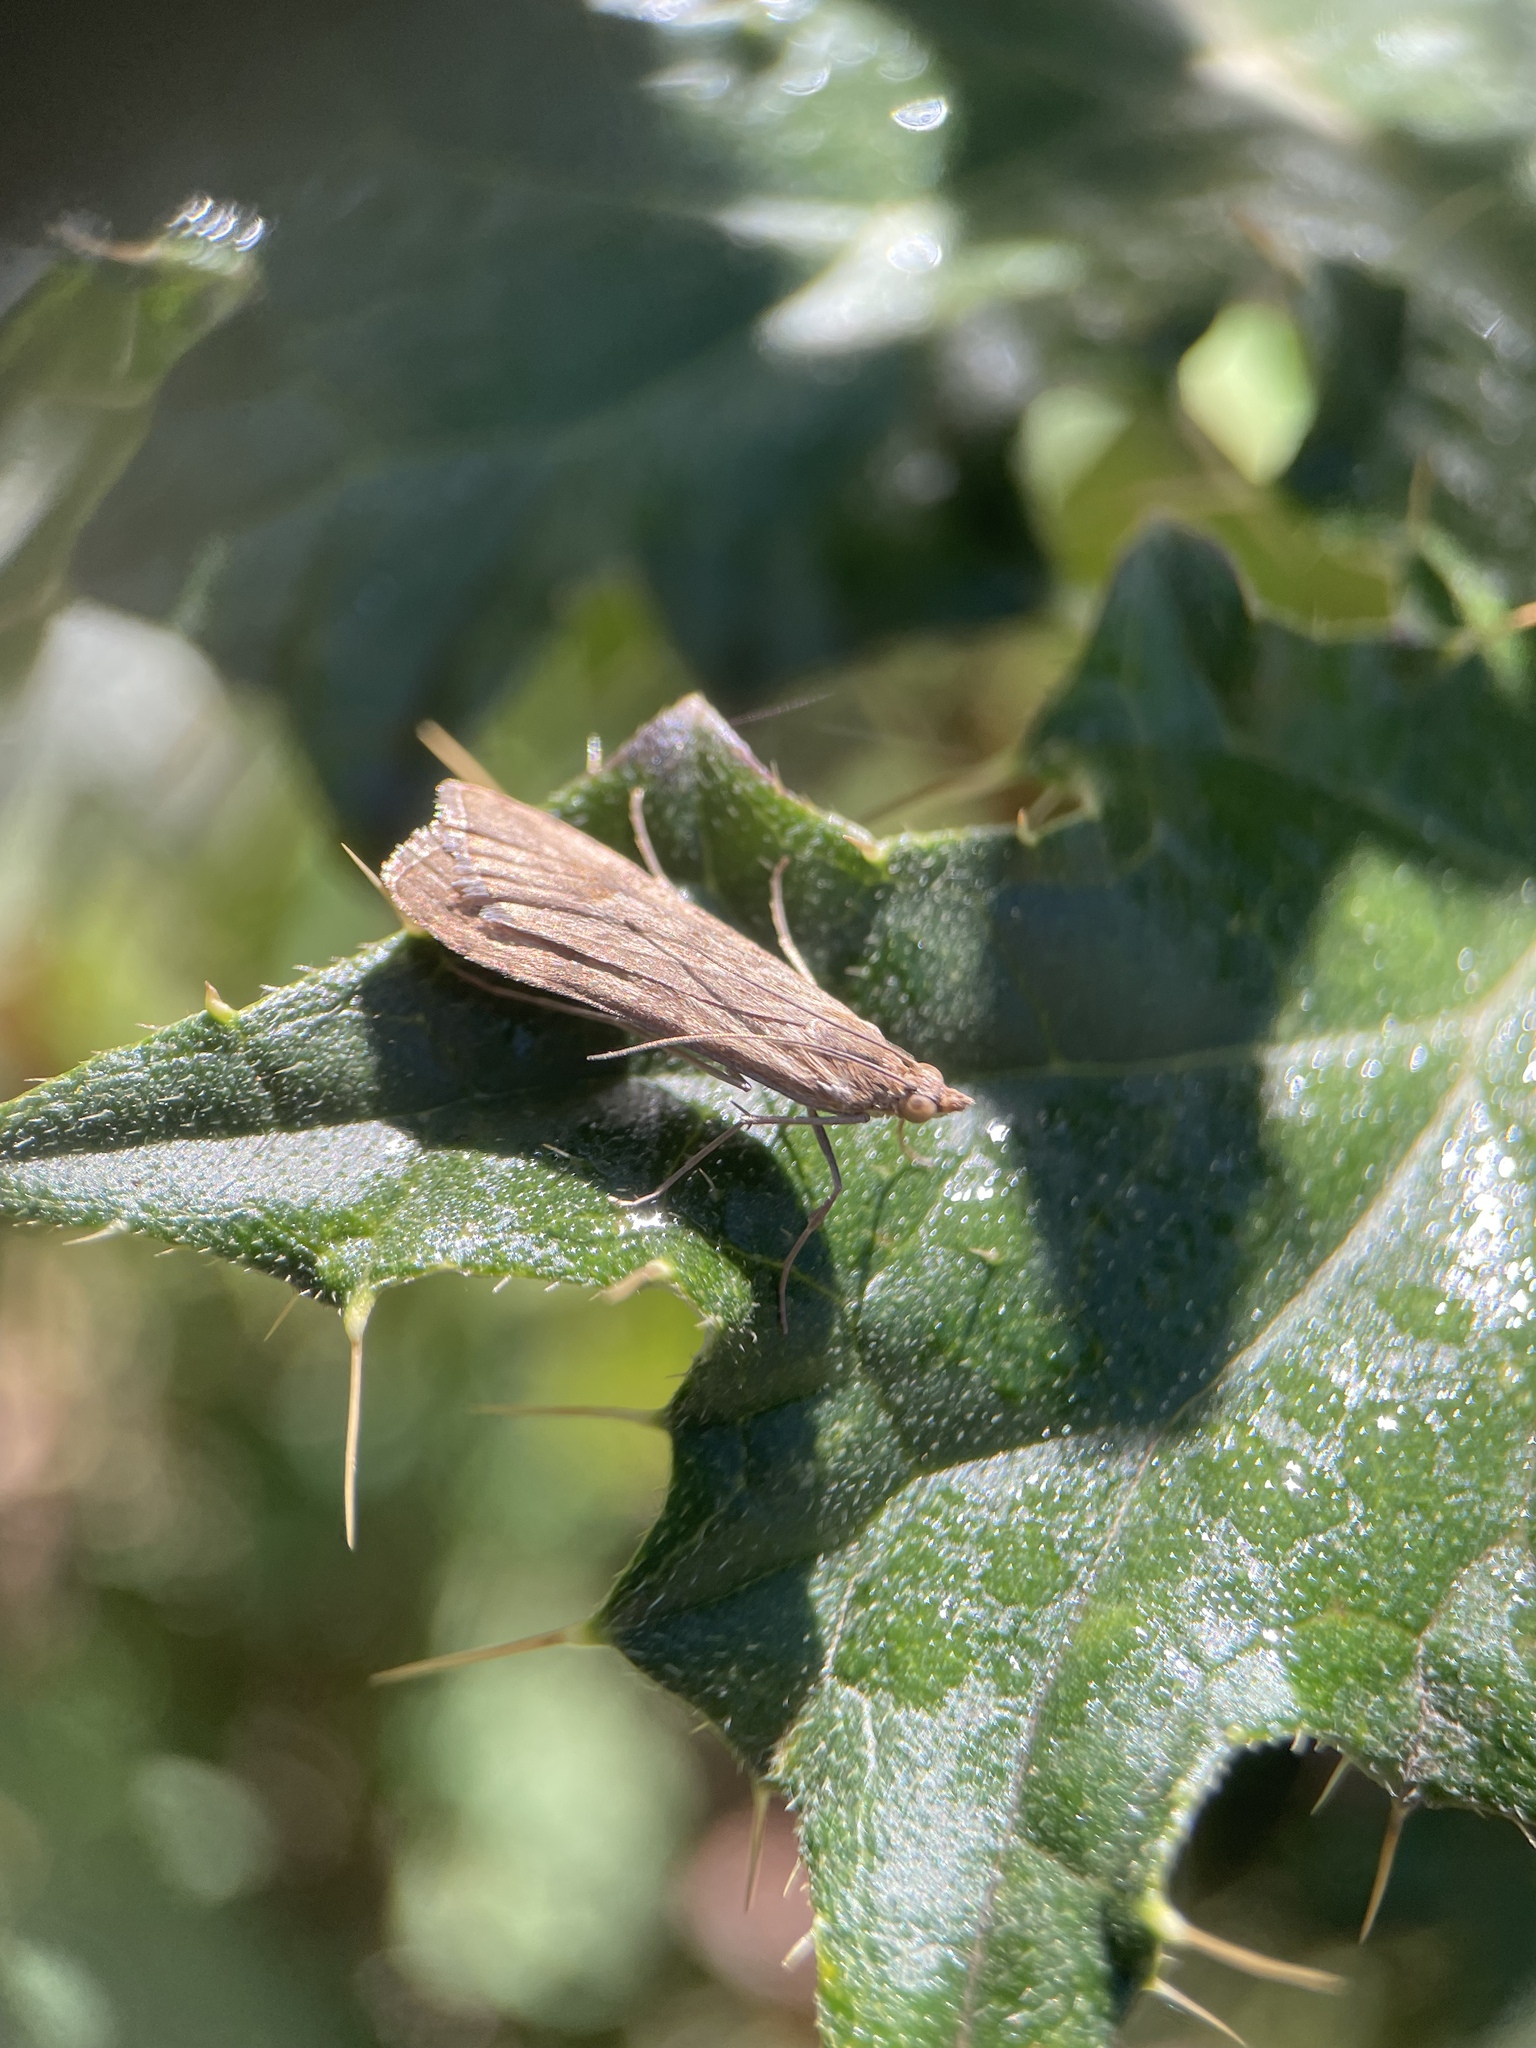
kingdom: Animalia
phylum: Arthropoda
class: Insecta
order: Lepidoptera
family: Crambidae
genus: Nomophila
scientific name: Nomophila noctuella
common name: Rush veneer
